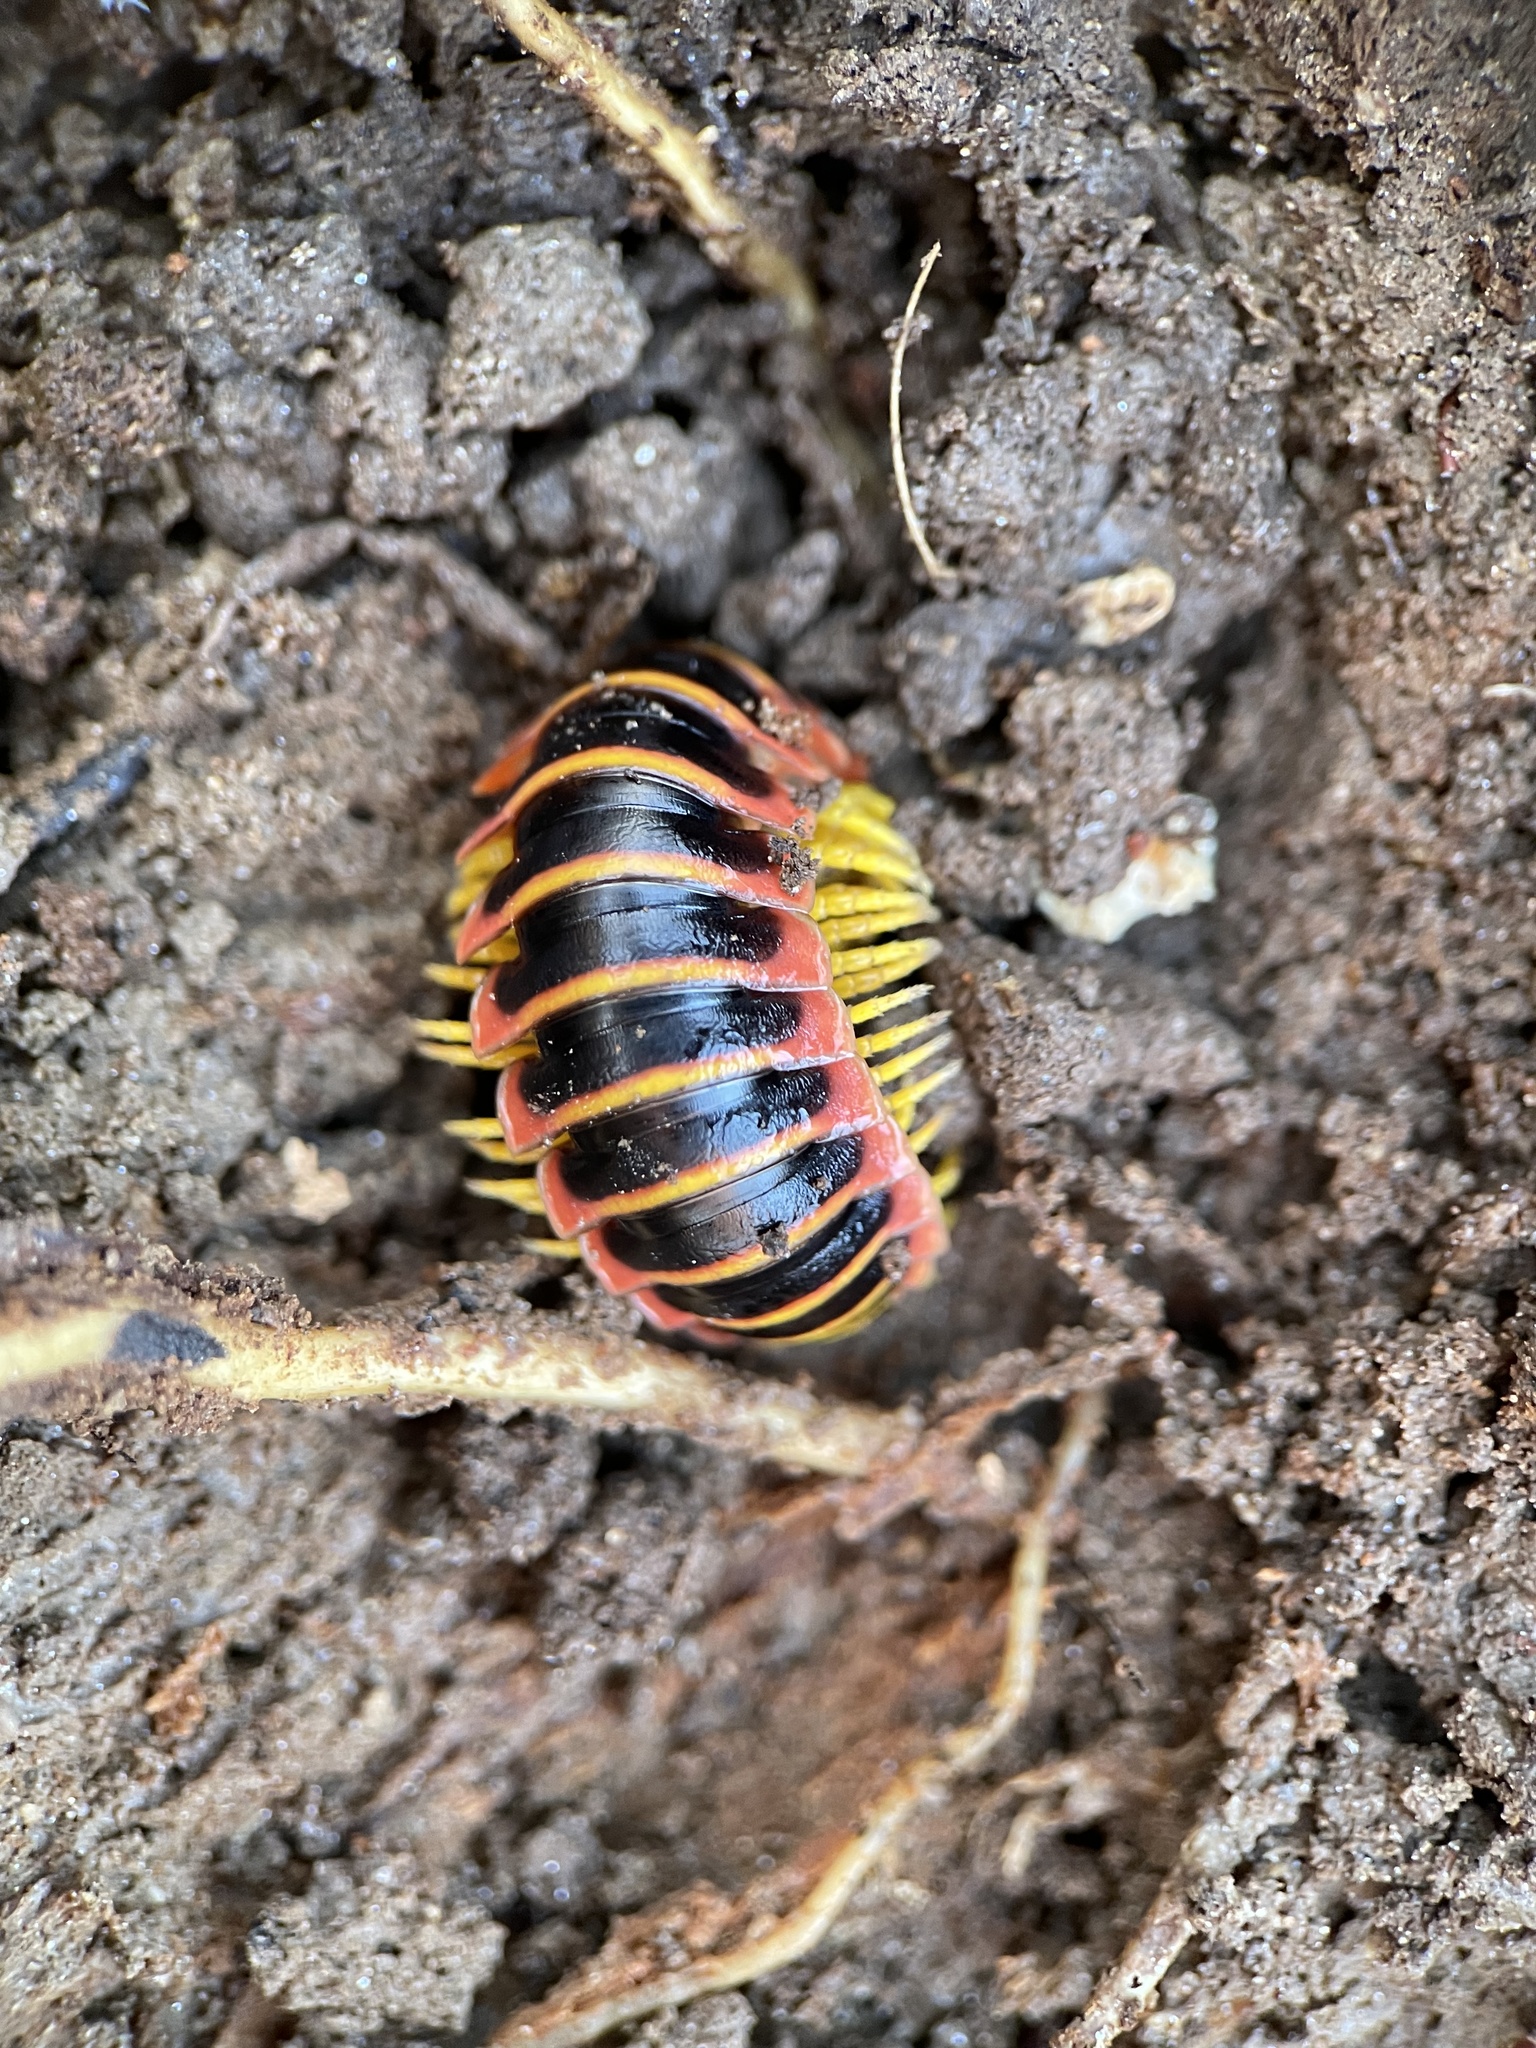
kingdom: Animalia
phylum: Arthropoda
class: Diplopoda
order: Polydesmida
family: Xystodesmidae
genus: Apheloria
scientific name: Apheloria virginiensis
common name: Black-and-gold flat millipede
